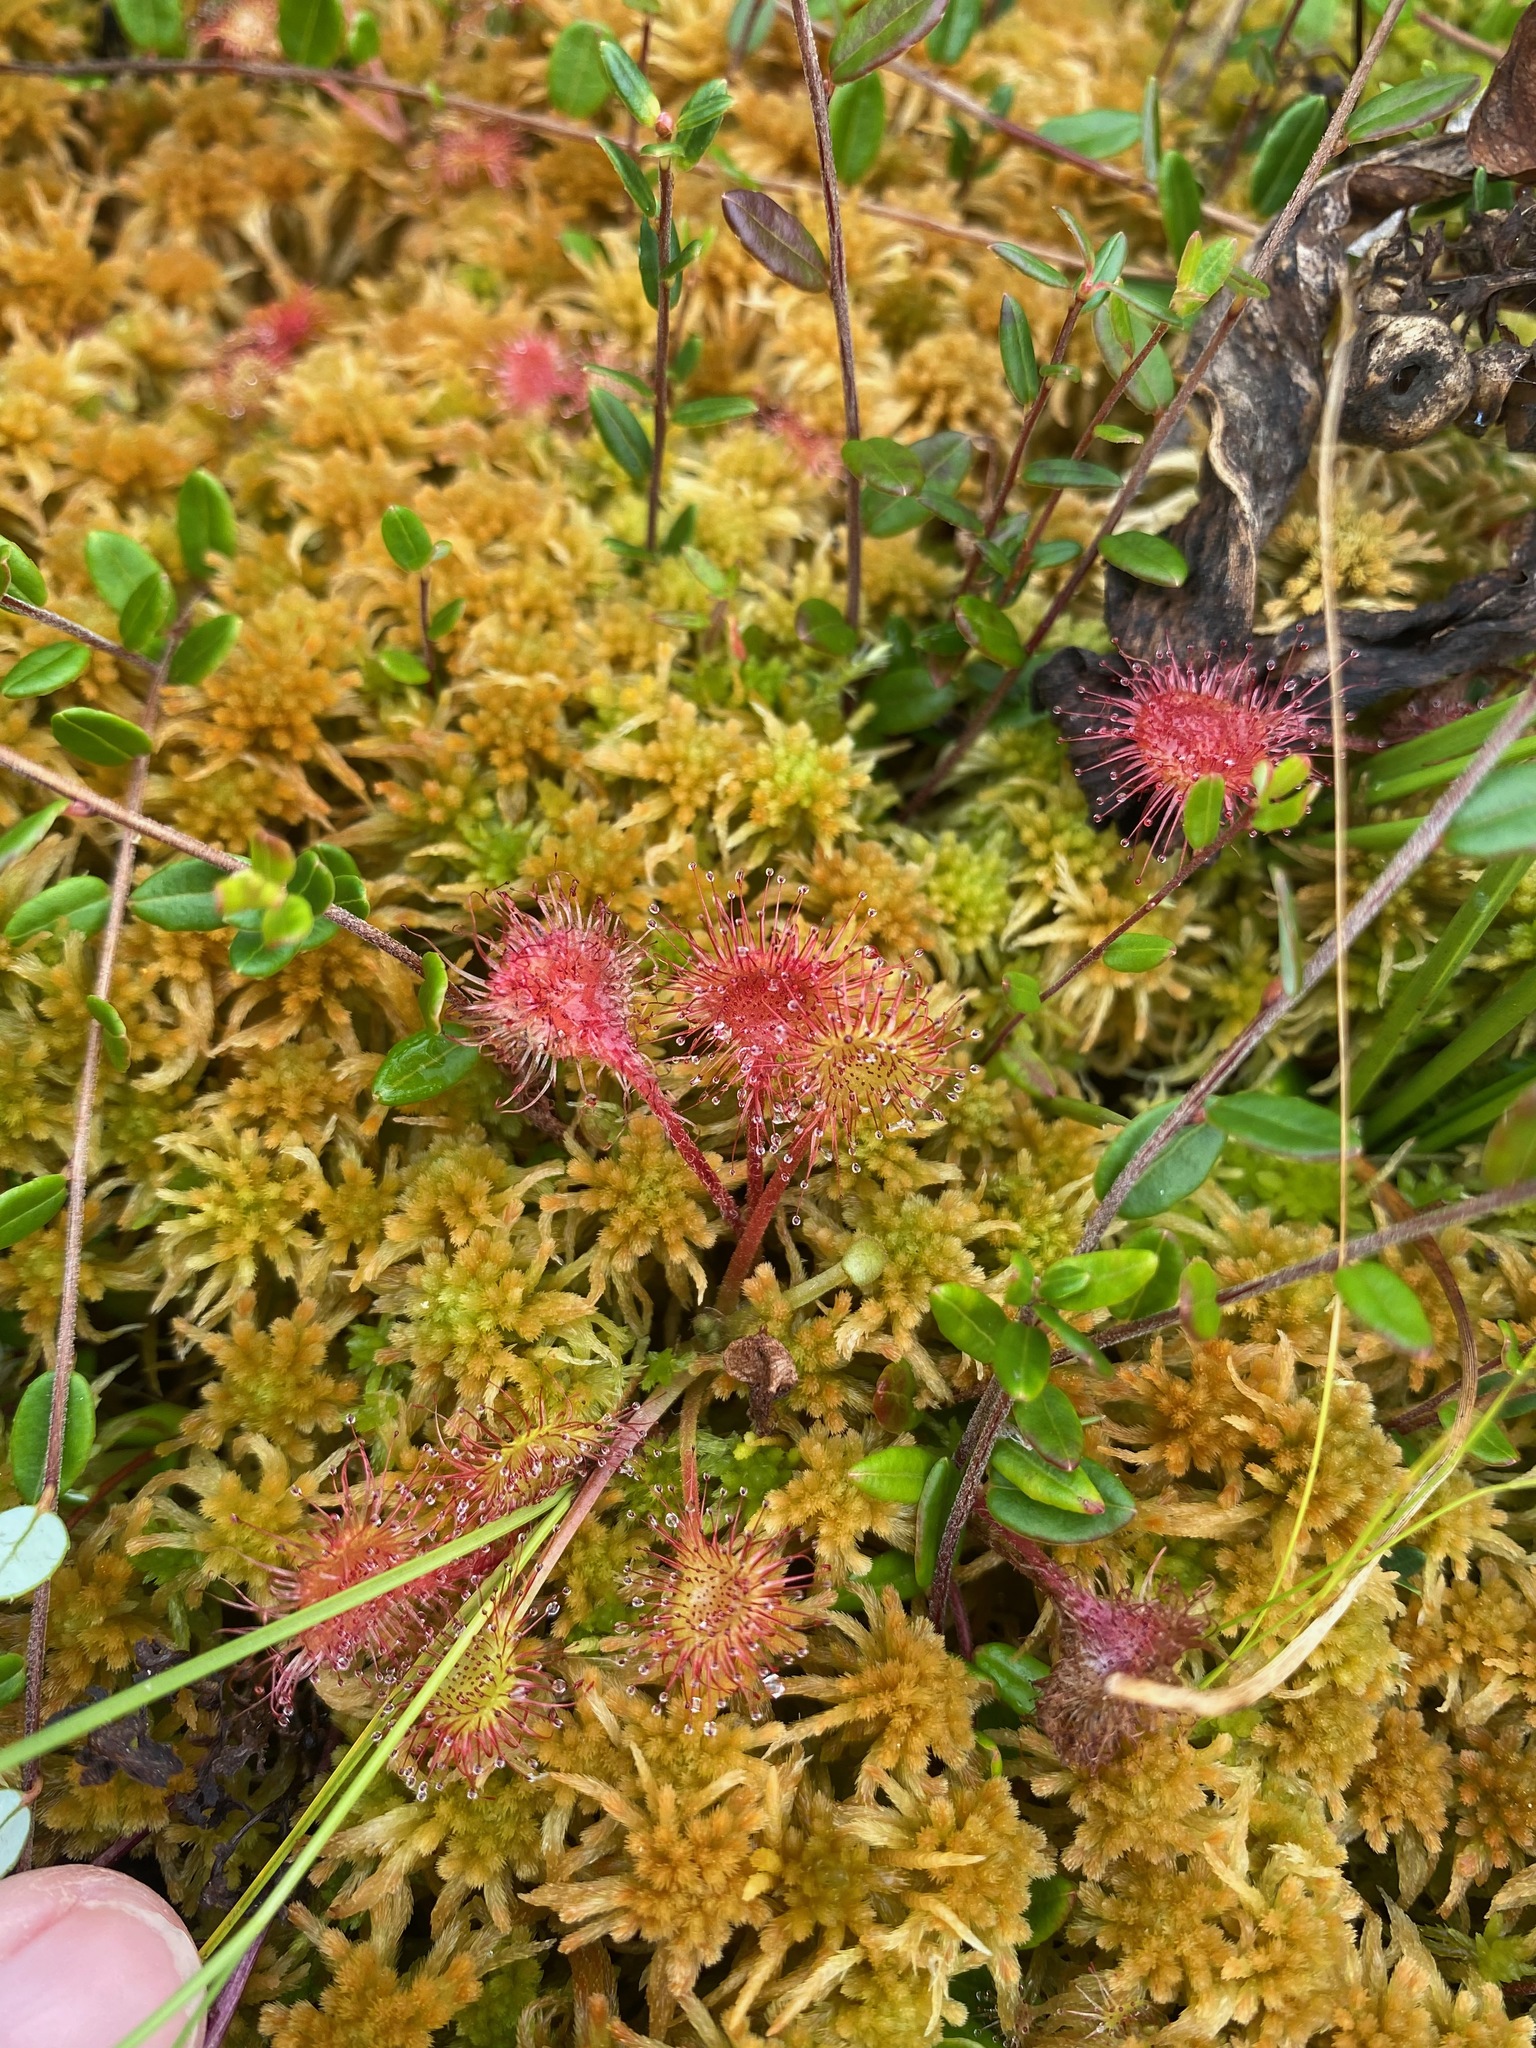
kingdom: Plantae
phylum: Tracheophyta
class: Magnoliopsida
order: Caryophyllales
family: Droseraceae
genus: Drosera
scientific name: Drosera rotundifolia
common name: Round-leaved sundew
